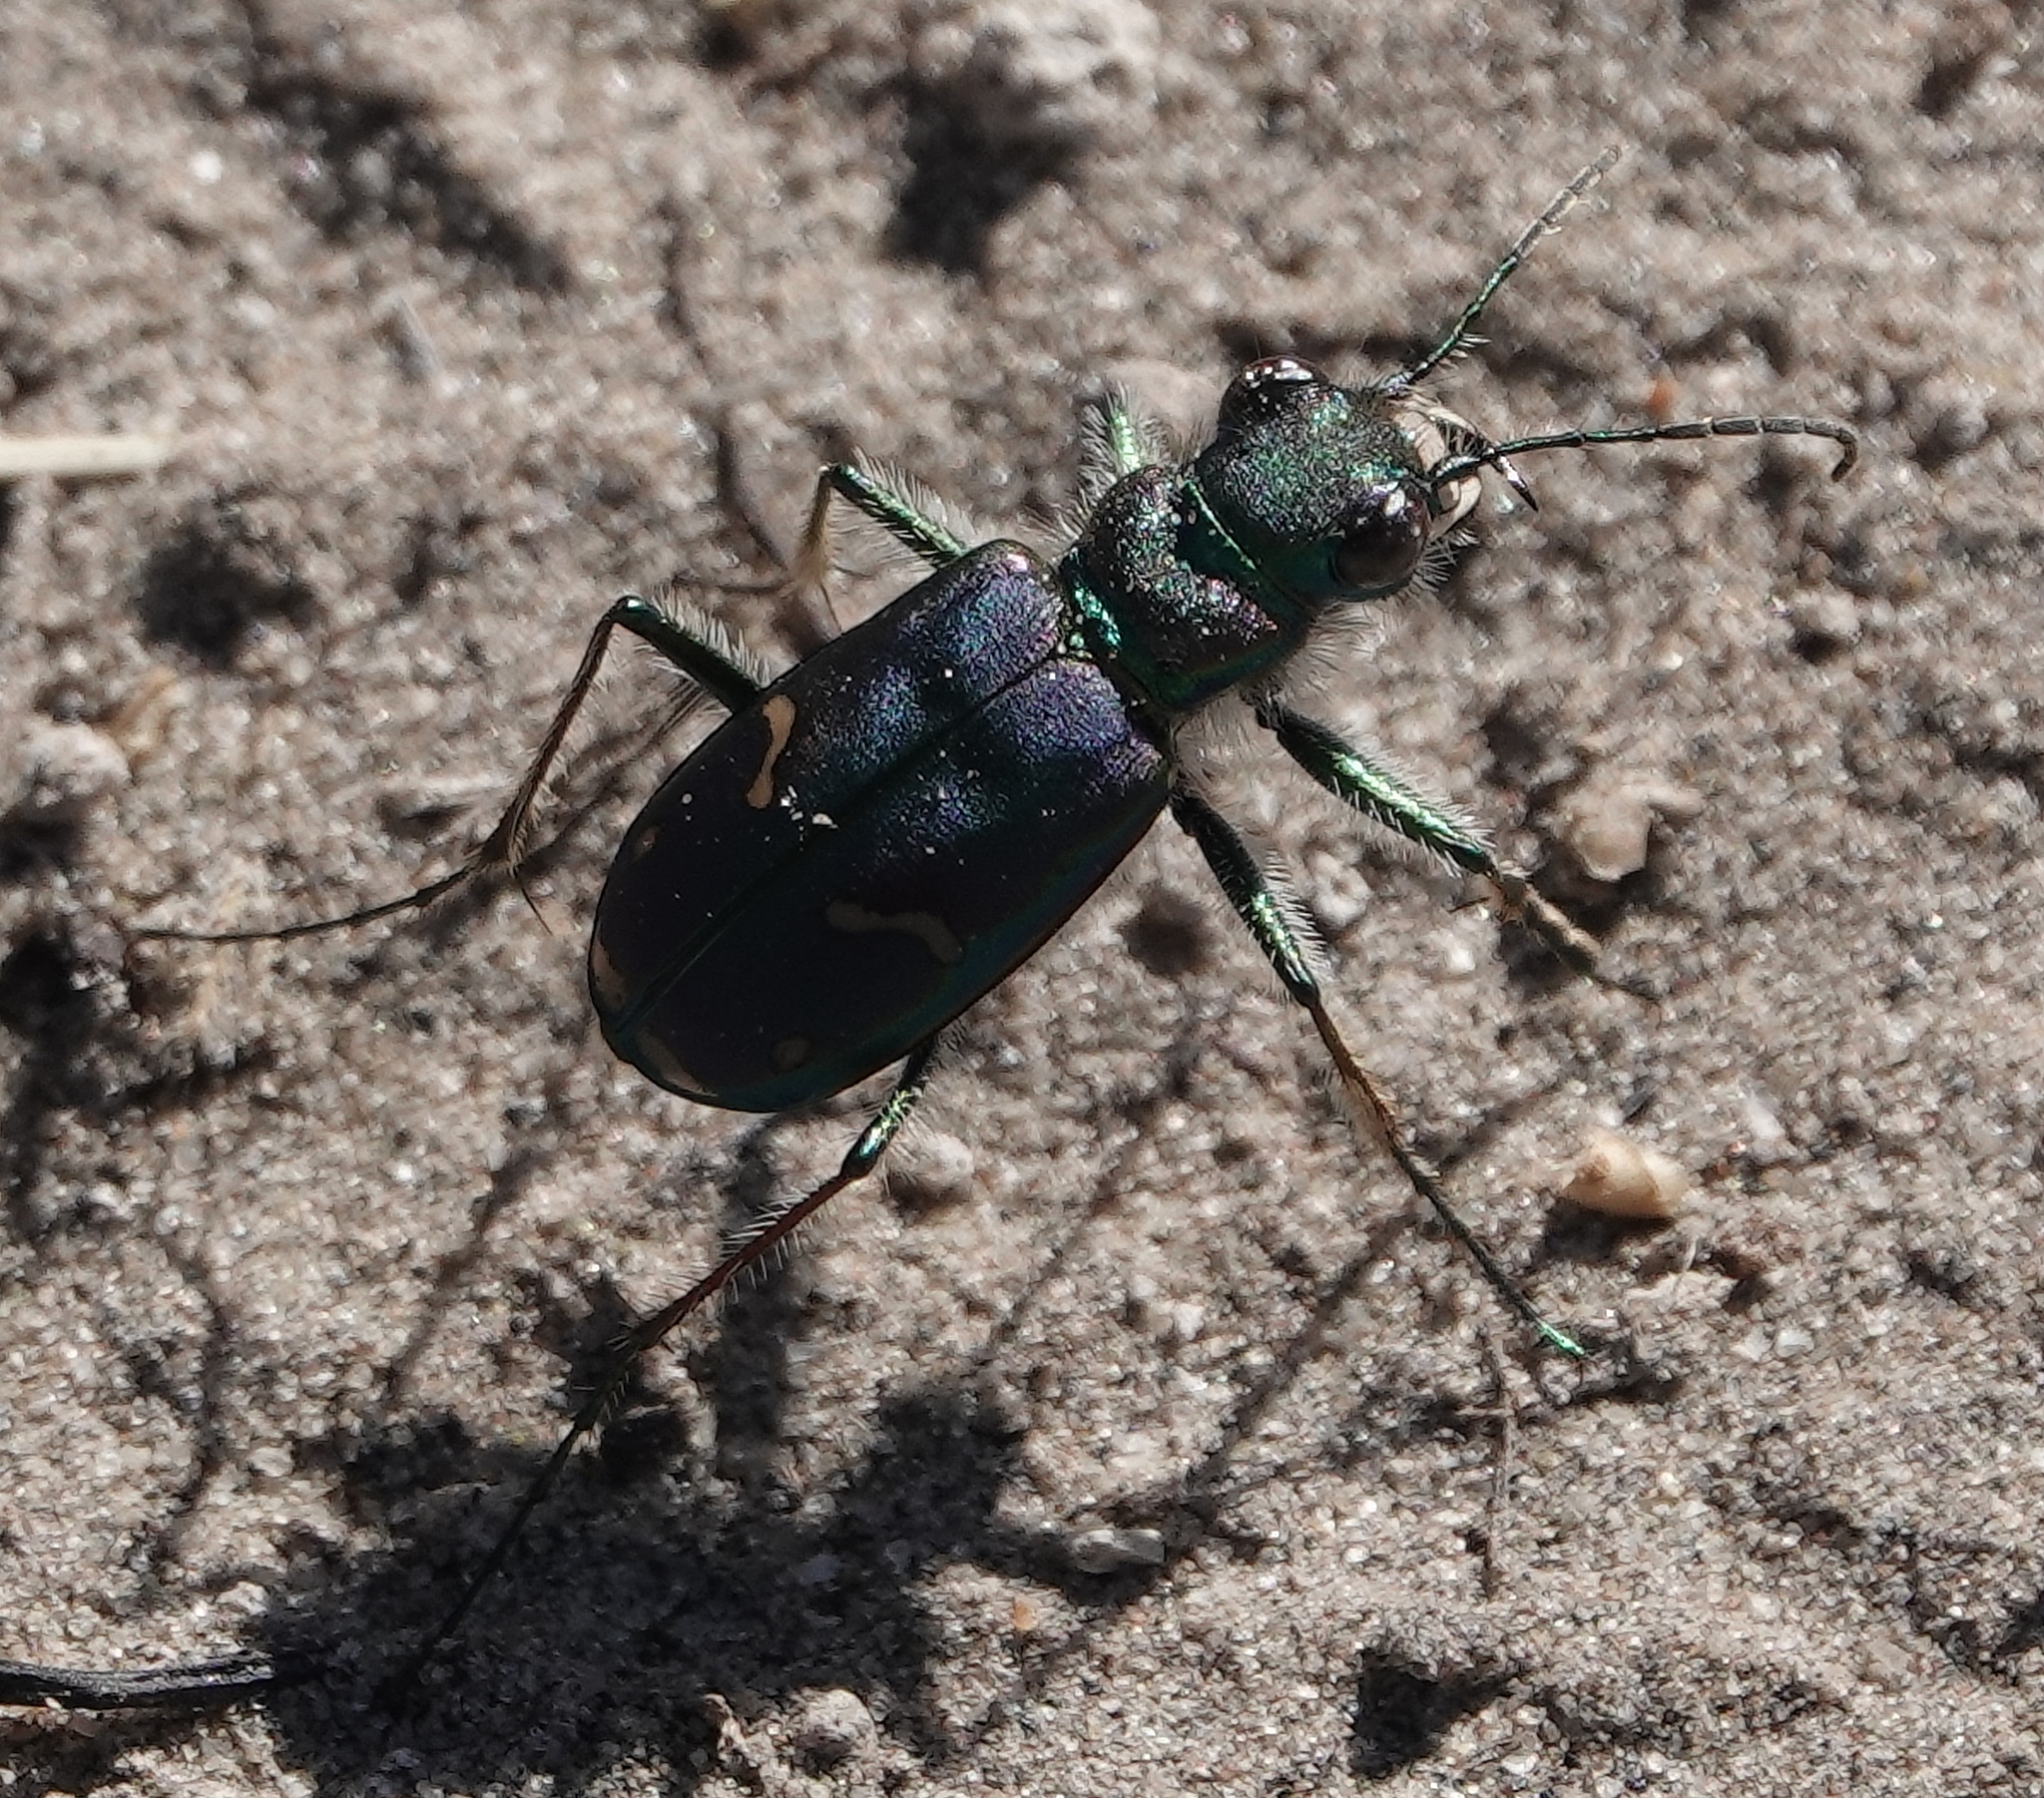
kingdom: Animalia
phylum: Arthropoda
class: Insecta
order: Coleoptera
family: Carabidae
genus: Cicindela
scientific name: Cicindela purpurea
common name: Cow path tiger beetle
